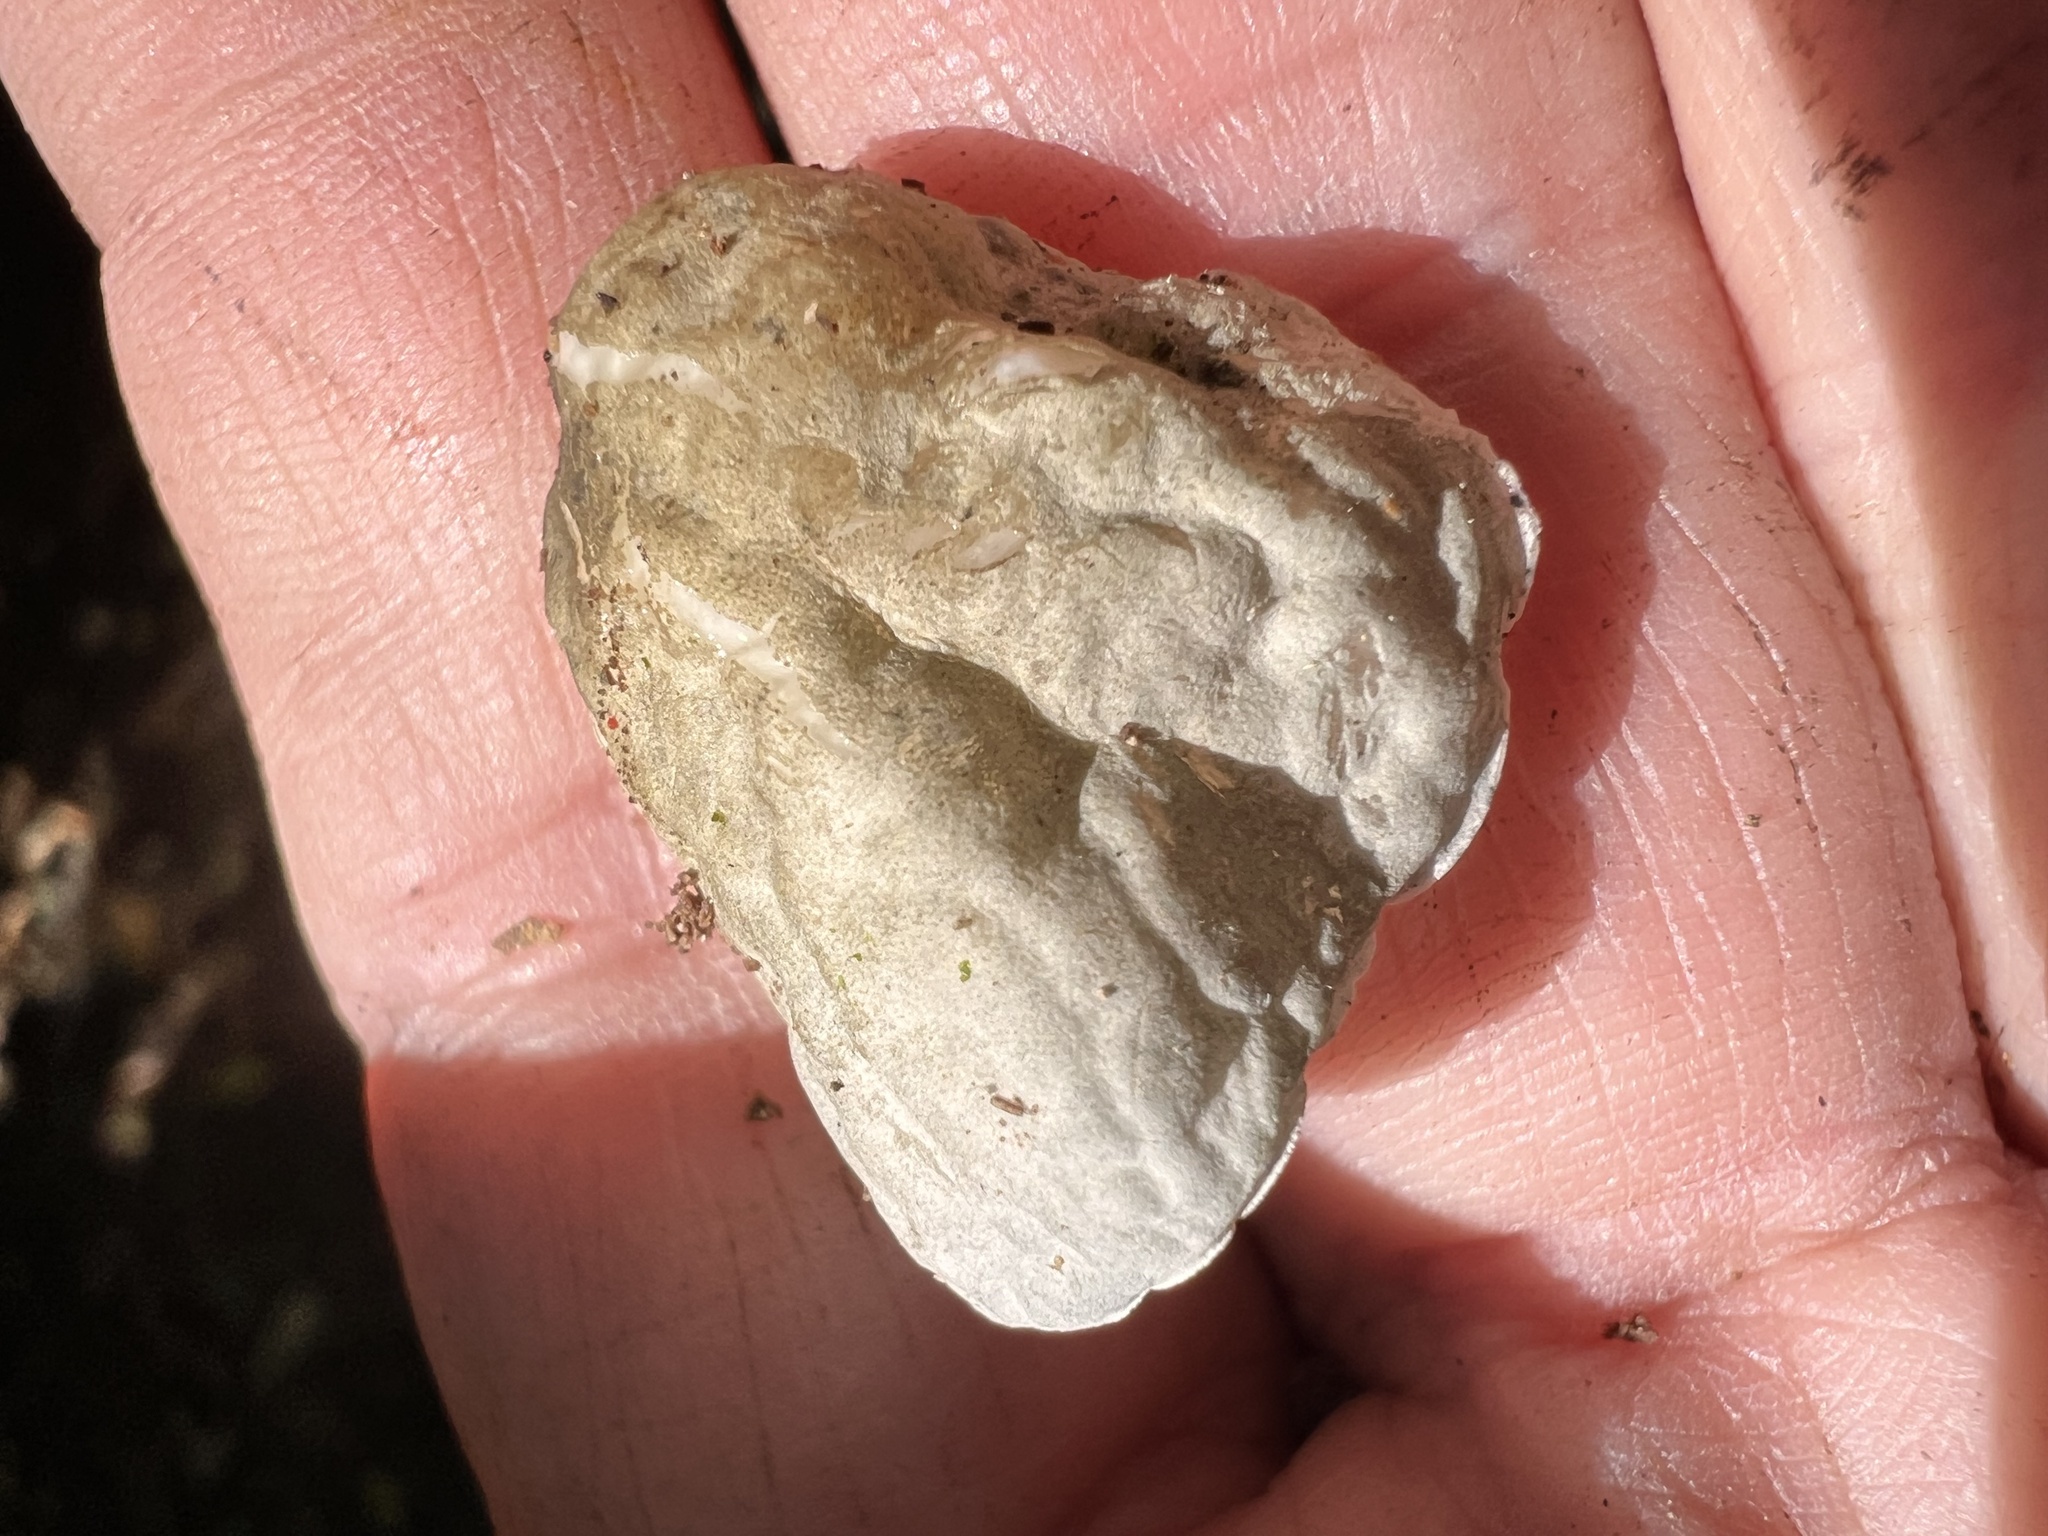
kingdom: Fungi
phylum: Basidiomycota
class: Agaricomycetes
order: Agaricales
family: Marasmiaceae
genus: Campanella
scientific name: Campanella tristis
